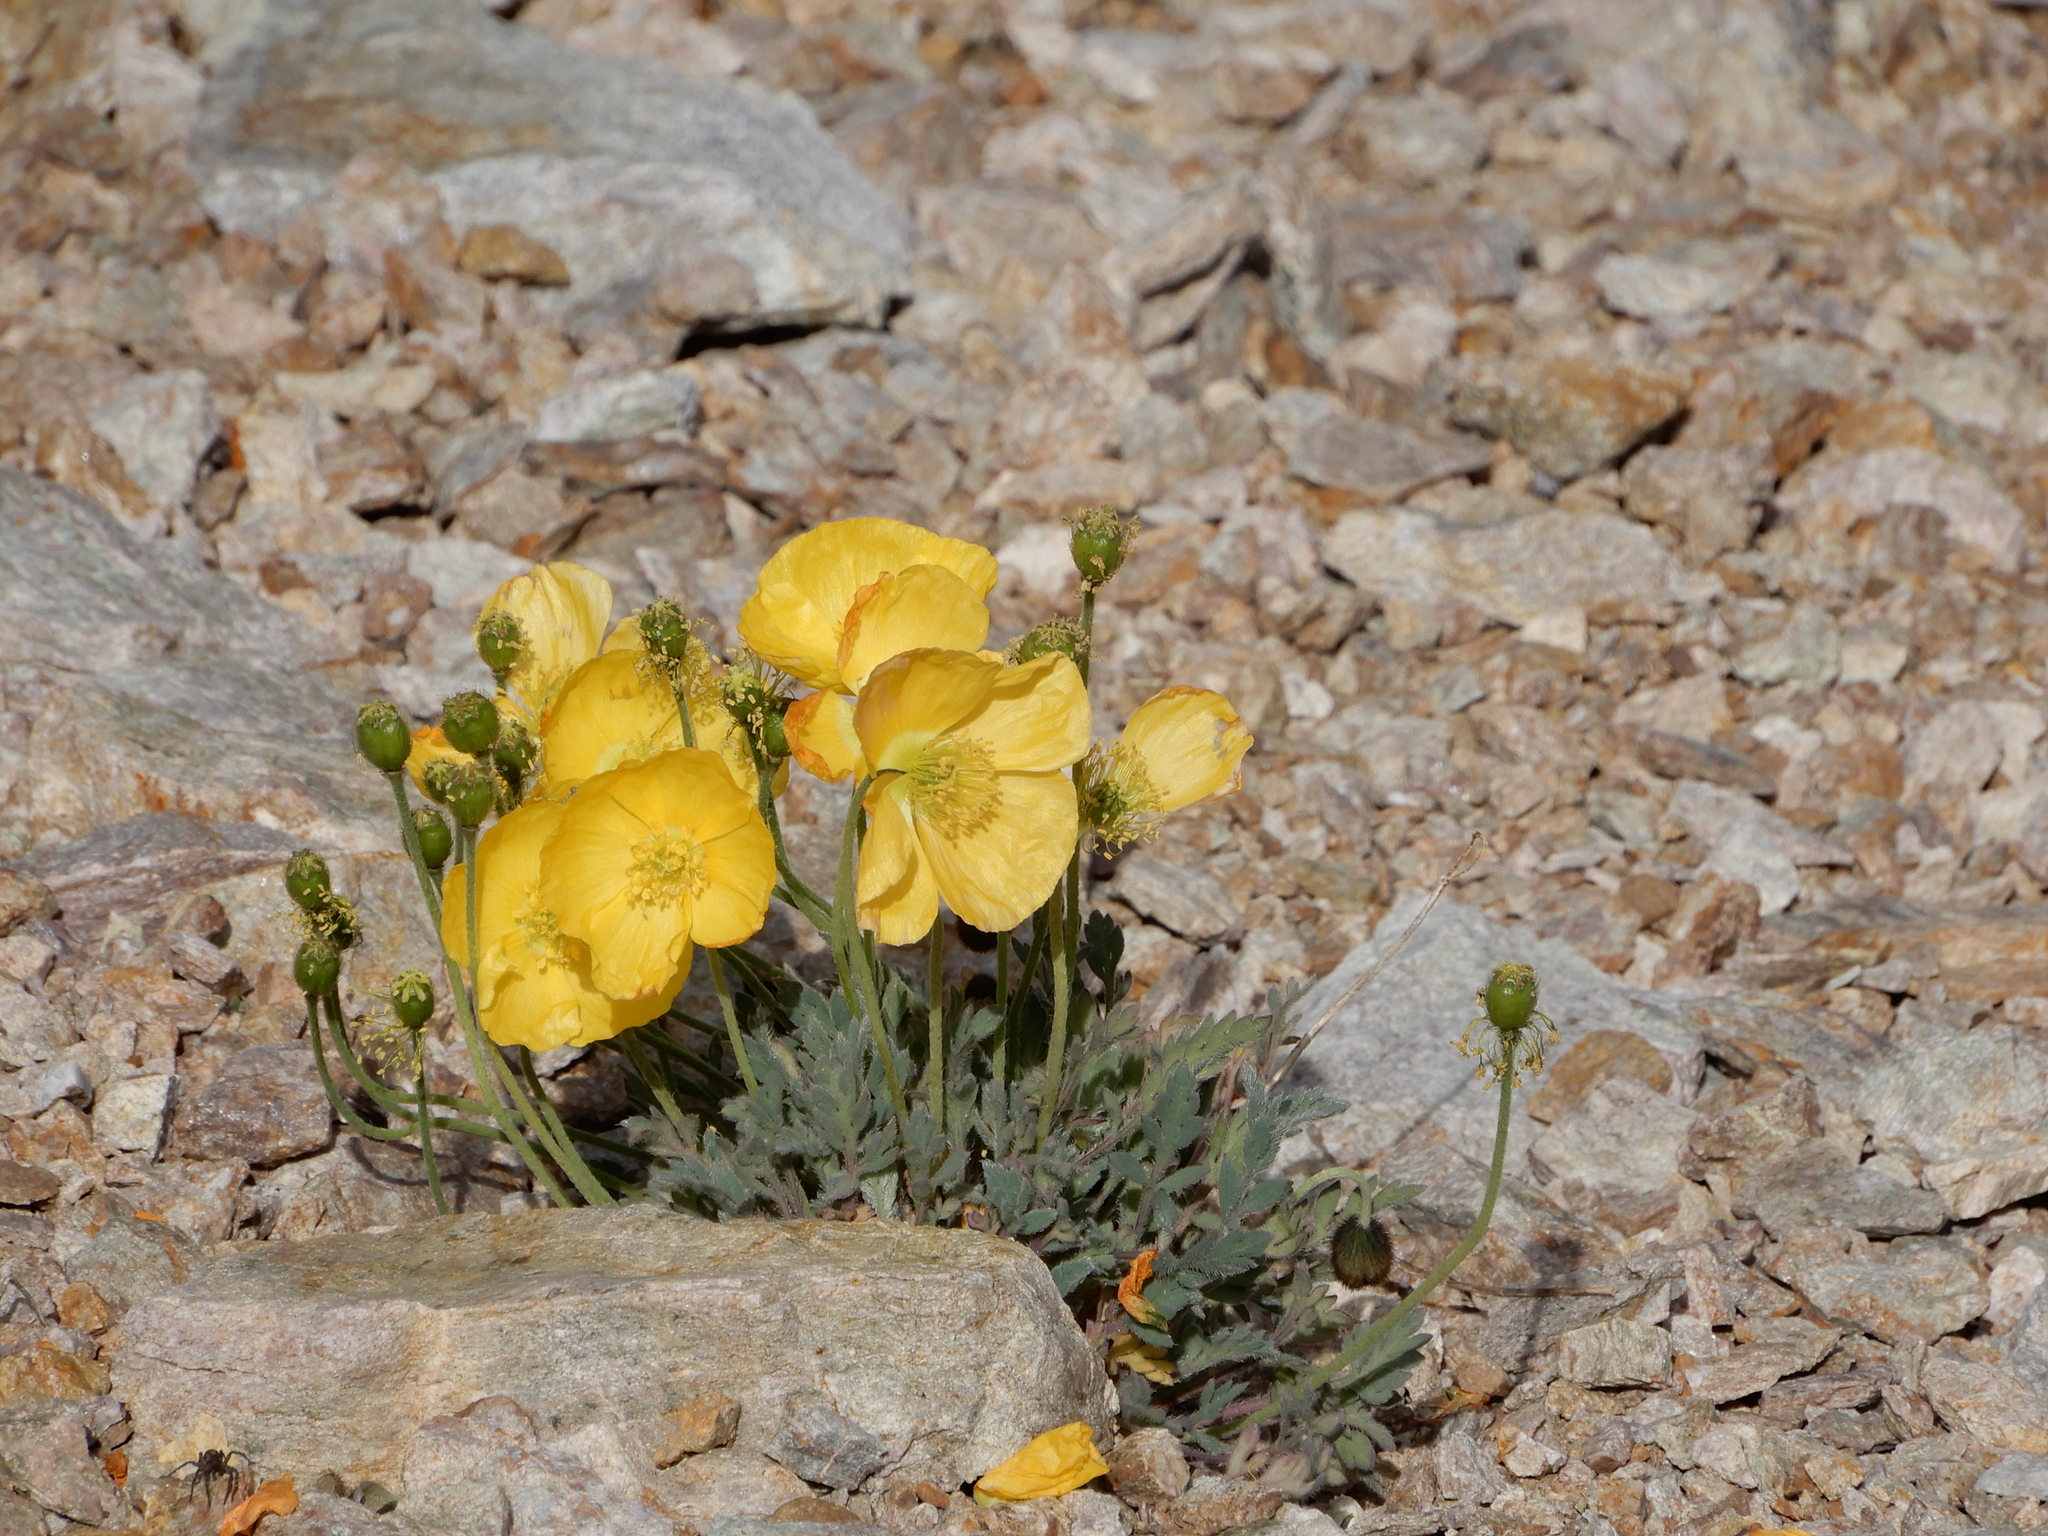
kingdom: Plantae
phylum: Tracheophyta
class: Magnoliopsida
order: Ranunculales
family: Papaveraceae
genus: Papaver
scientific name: Papaver alpinum
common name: Austrian poppy
